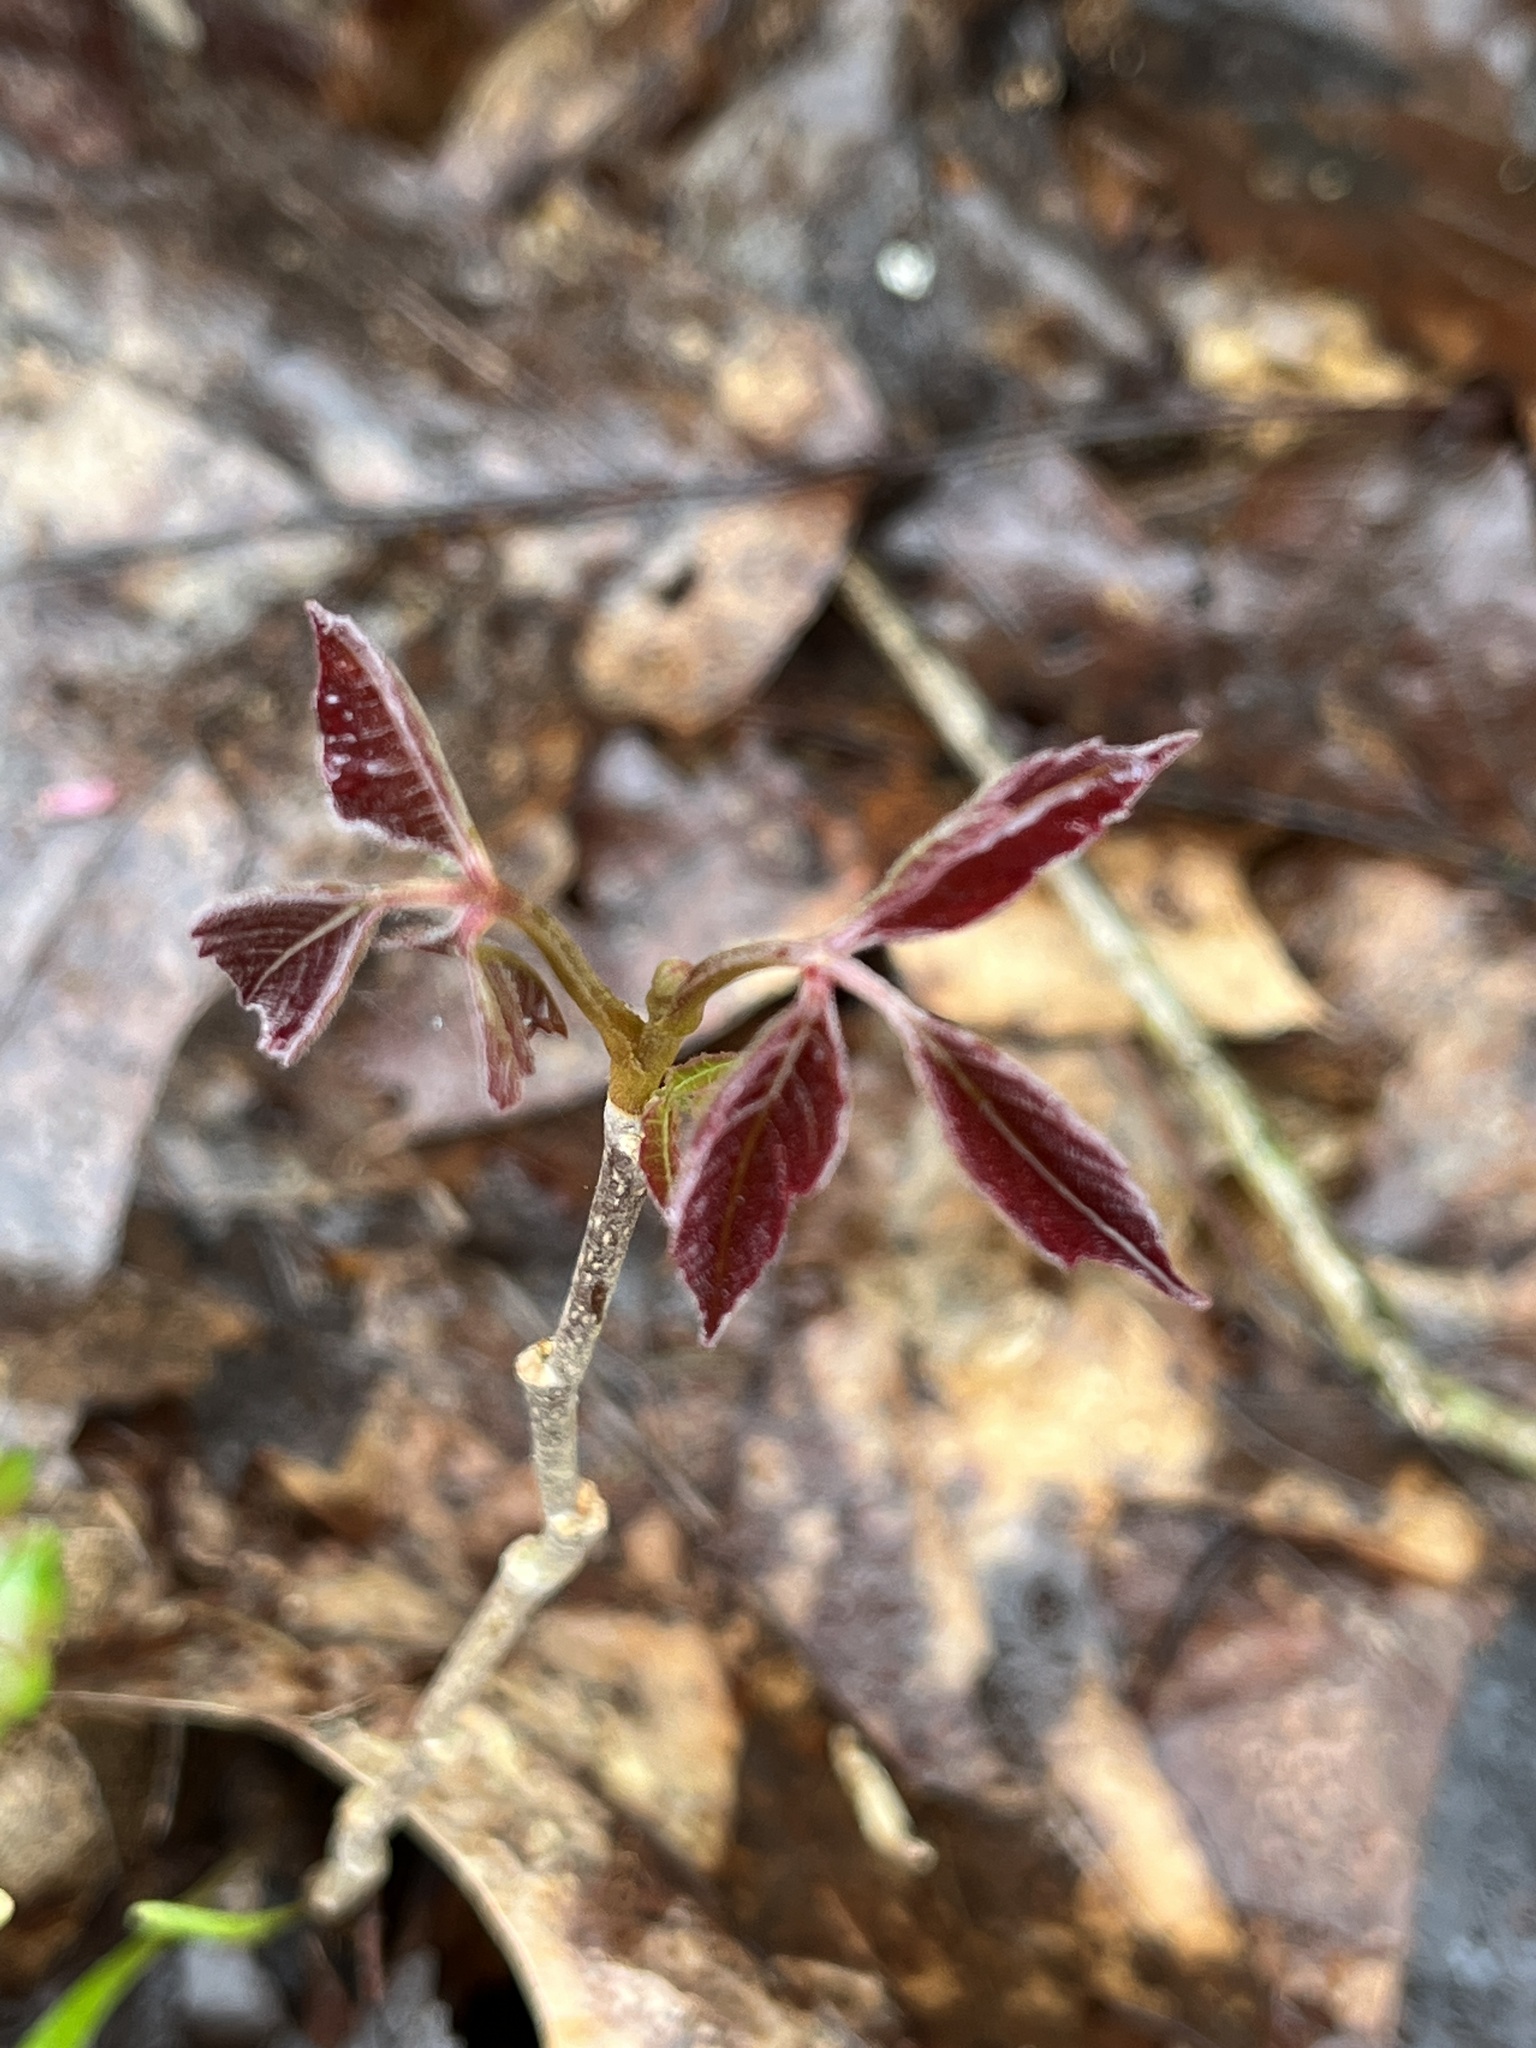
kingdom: Plantae
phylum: Tracheophyta
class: Magnoliopsida
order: Sapindales
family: Anacardiaceae
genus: Toxicodendron
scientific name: Toxicodendron radicans
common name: Poison ivy
